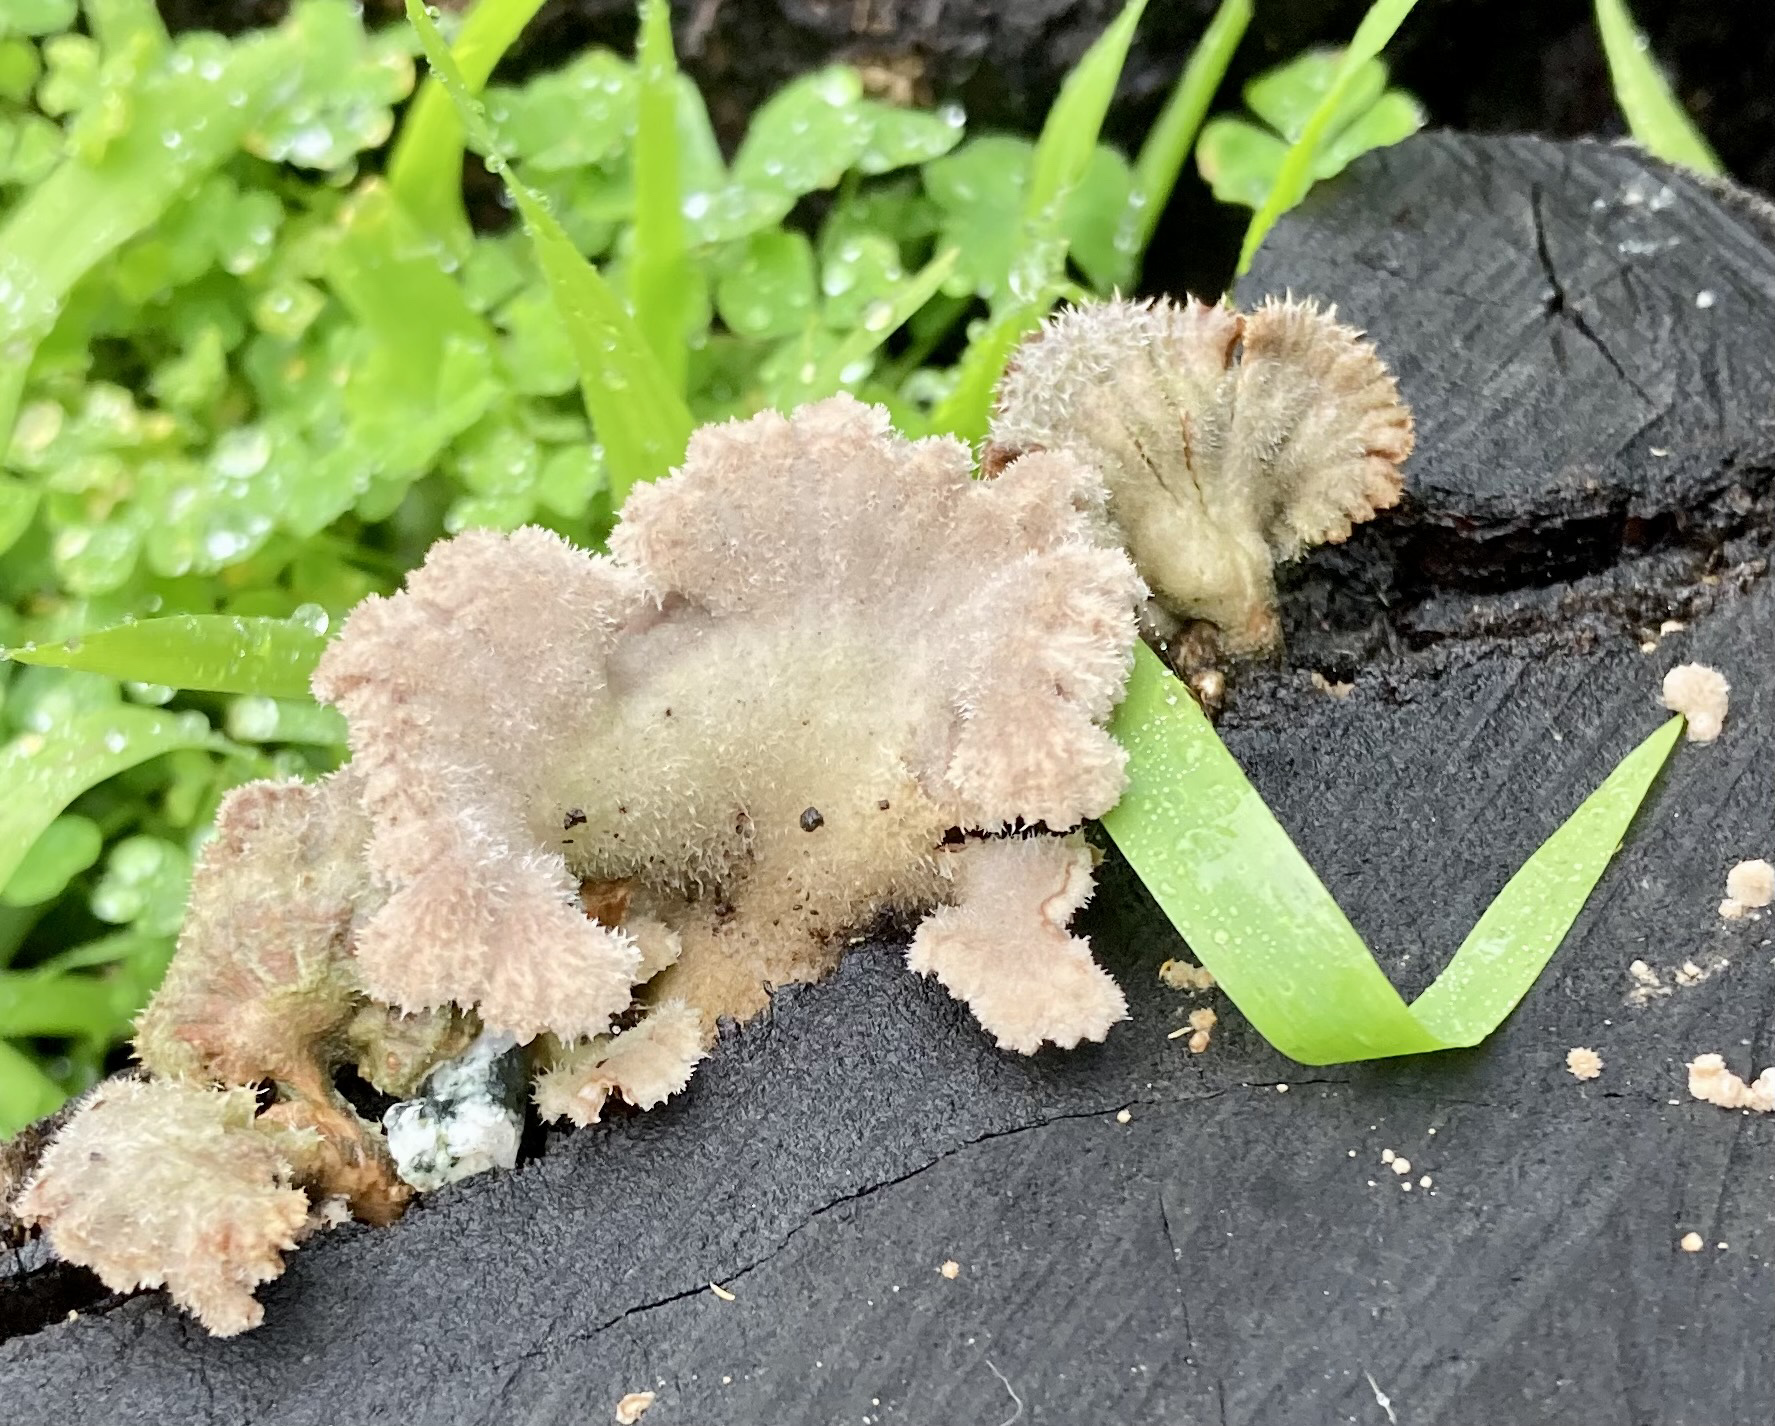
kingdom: Fungi
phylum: Basidiomycota
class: Agaricomycetes
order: Agaricales
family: Schizophyllaceae
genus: Schizophyllum
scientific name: Schizophyllum commune
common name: Common porecrust
